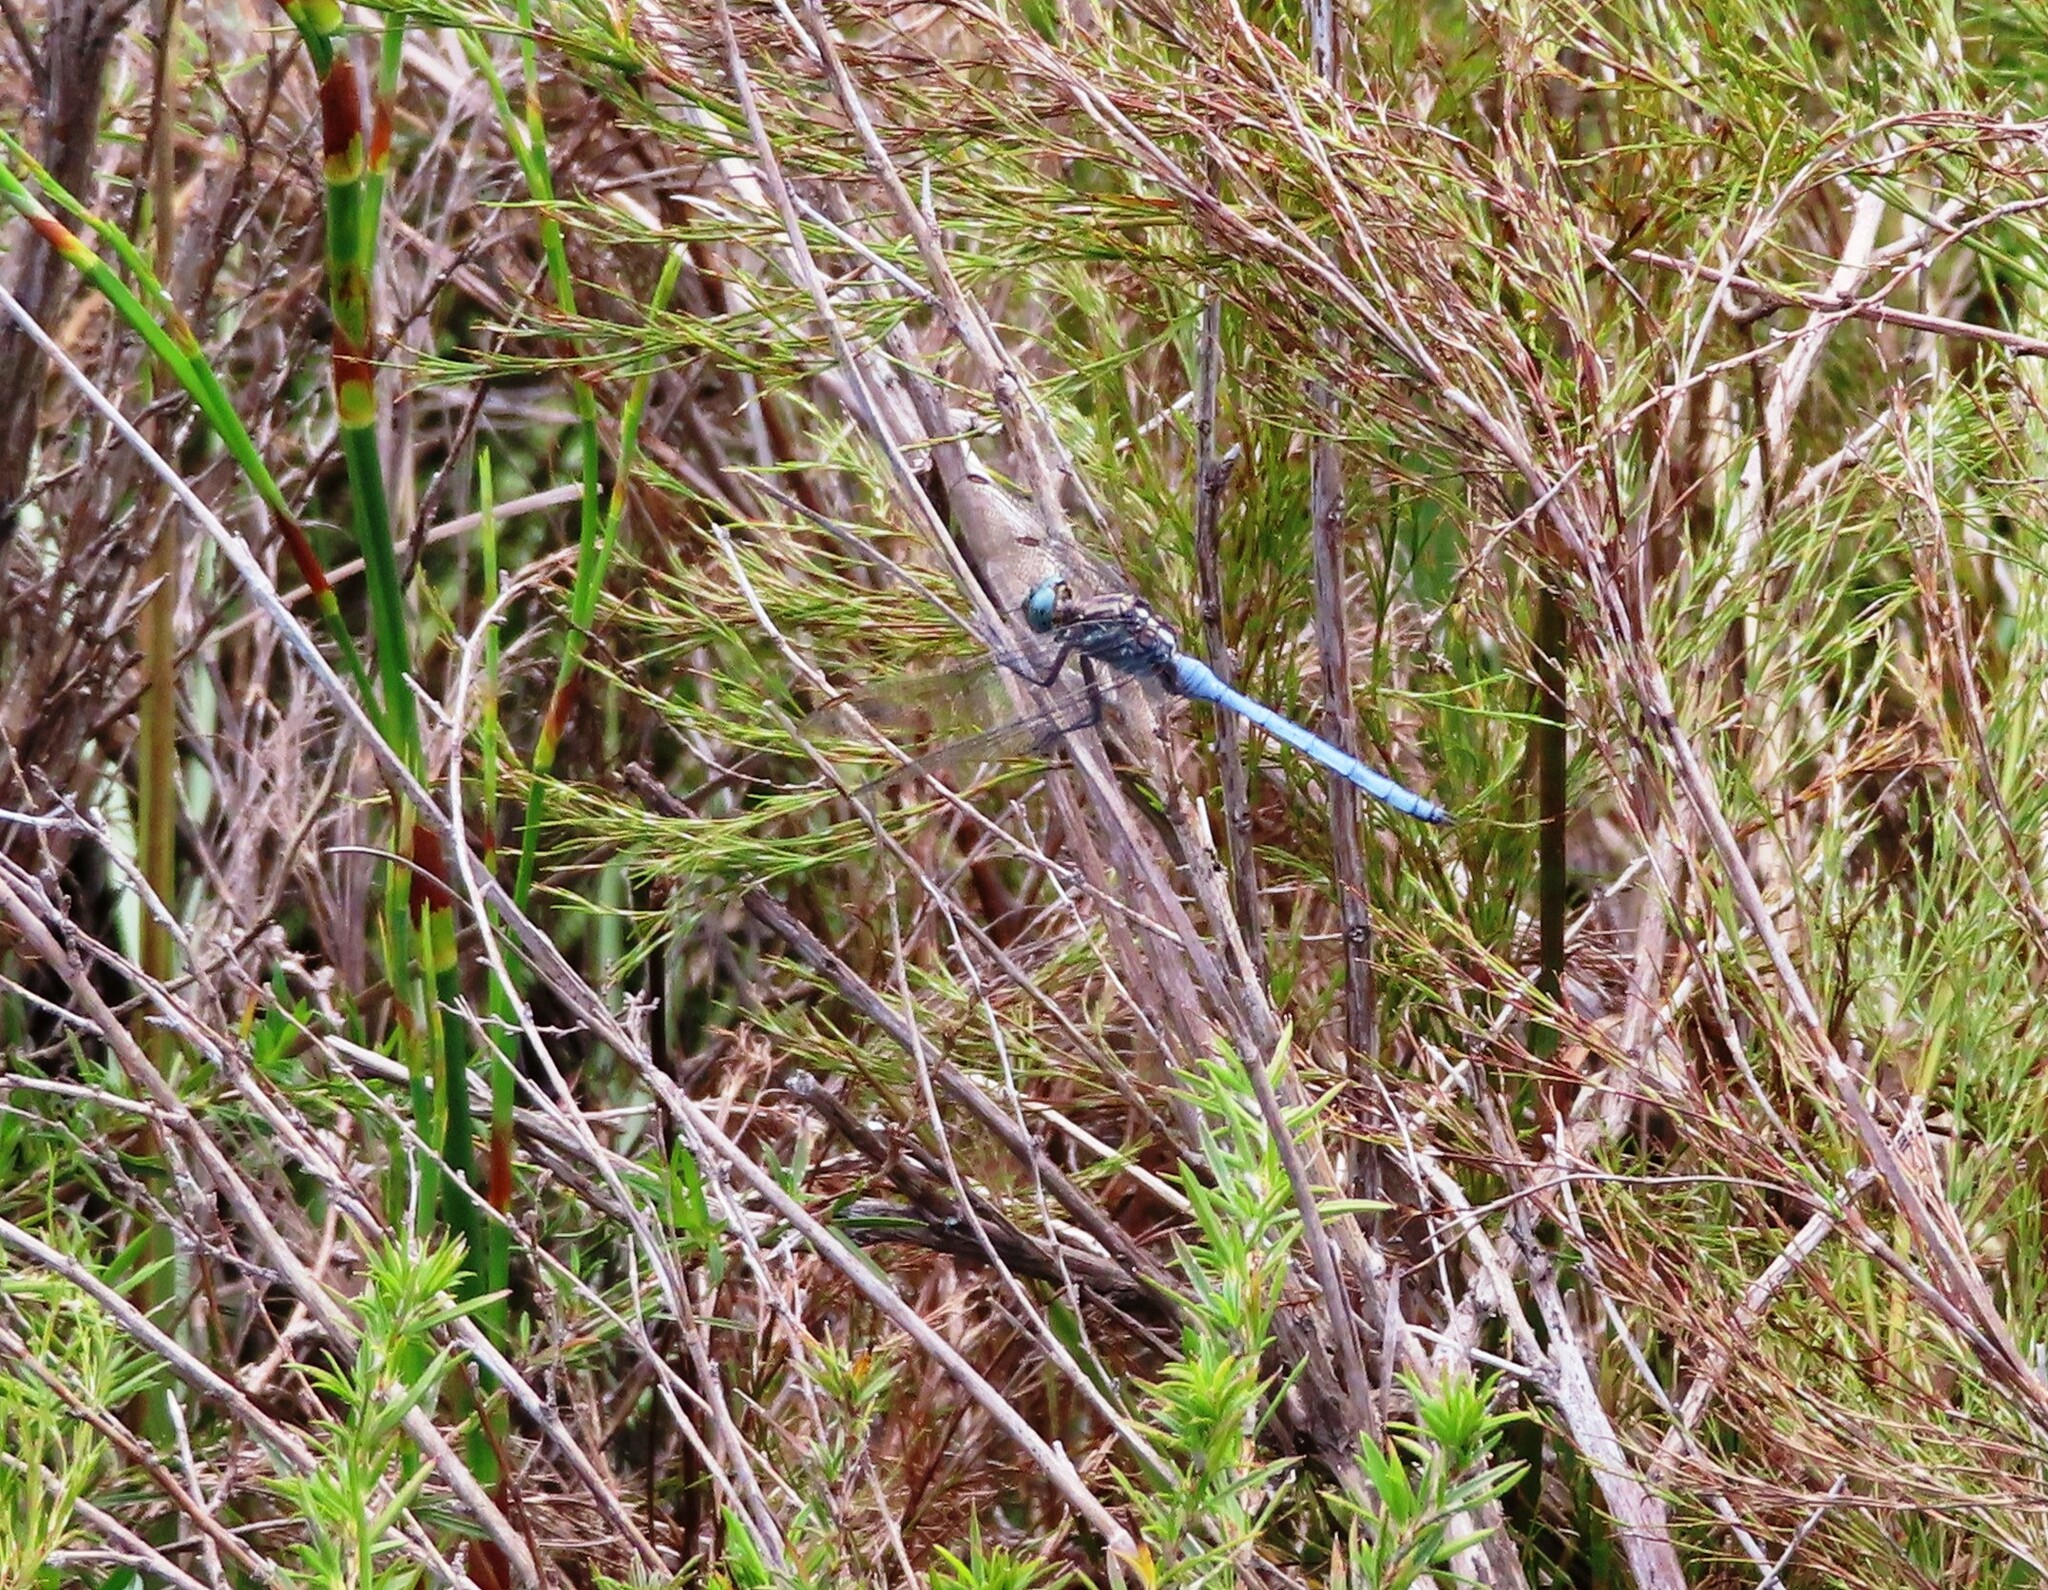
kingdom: Animalia
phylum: Arthropoda
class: Insecta
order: Odonata
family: Libellulidae
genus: Orthetrum
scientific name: Orthetrum julia
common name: Julia skimmer
